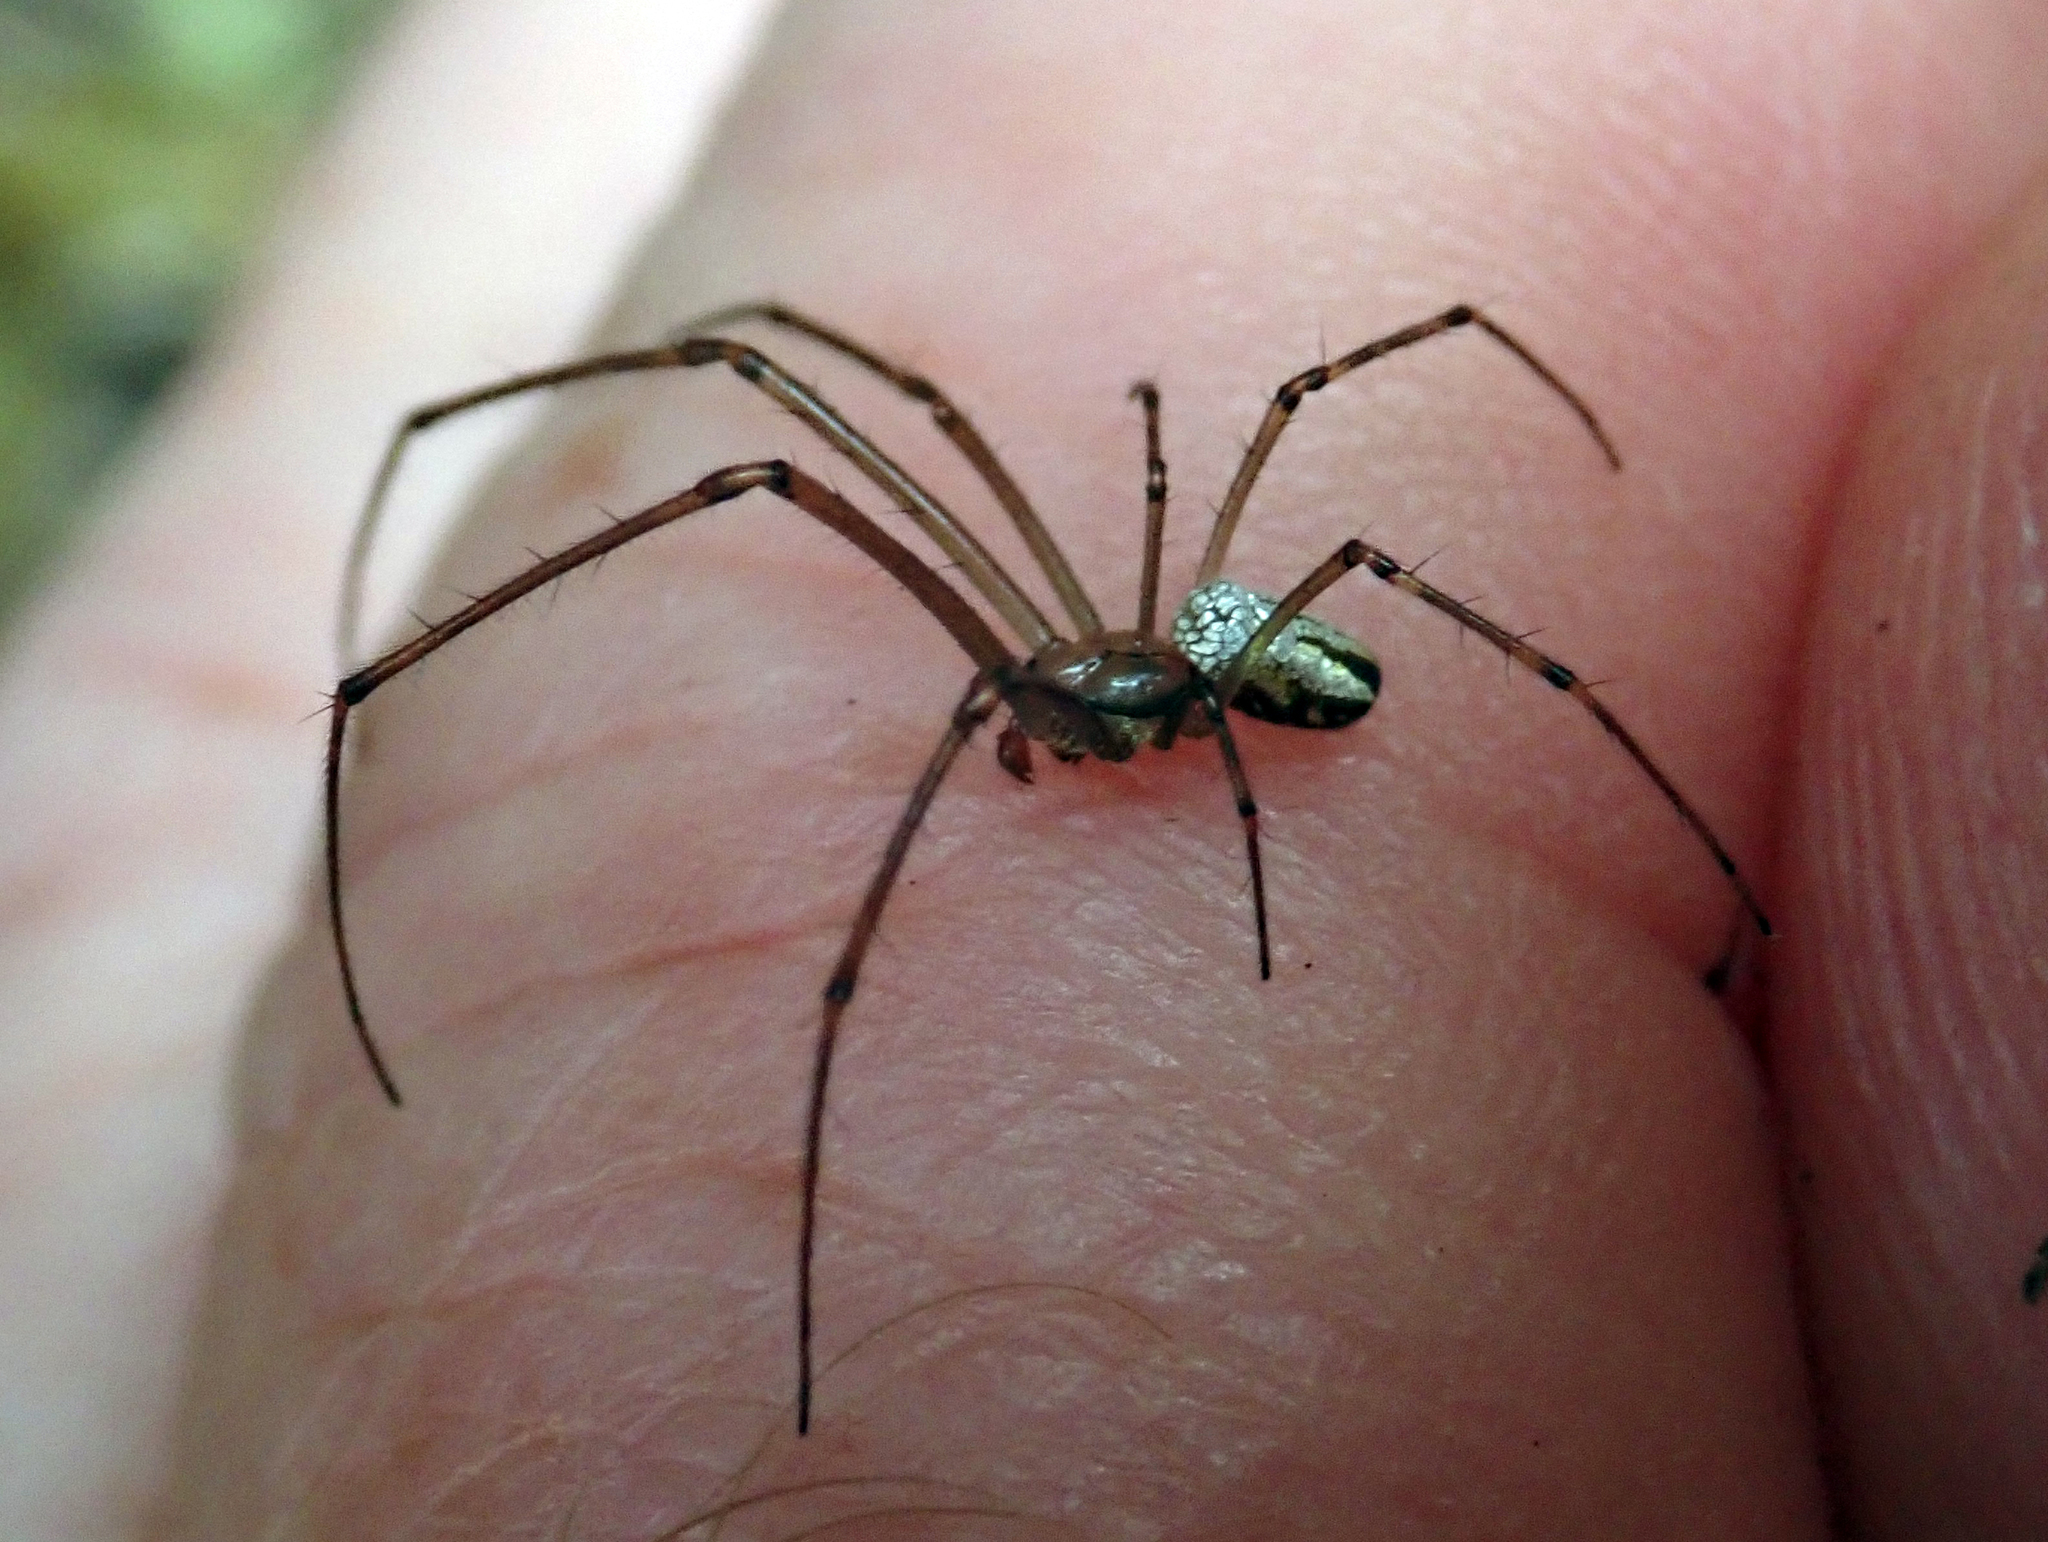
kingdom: Animalia
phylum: Arthropoda
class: Arachnida
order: Araneae
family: Tetragnathidae
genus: Leucauge
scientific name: Leucauge dromedaria
